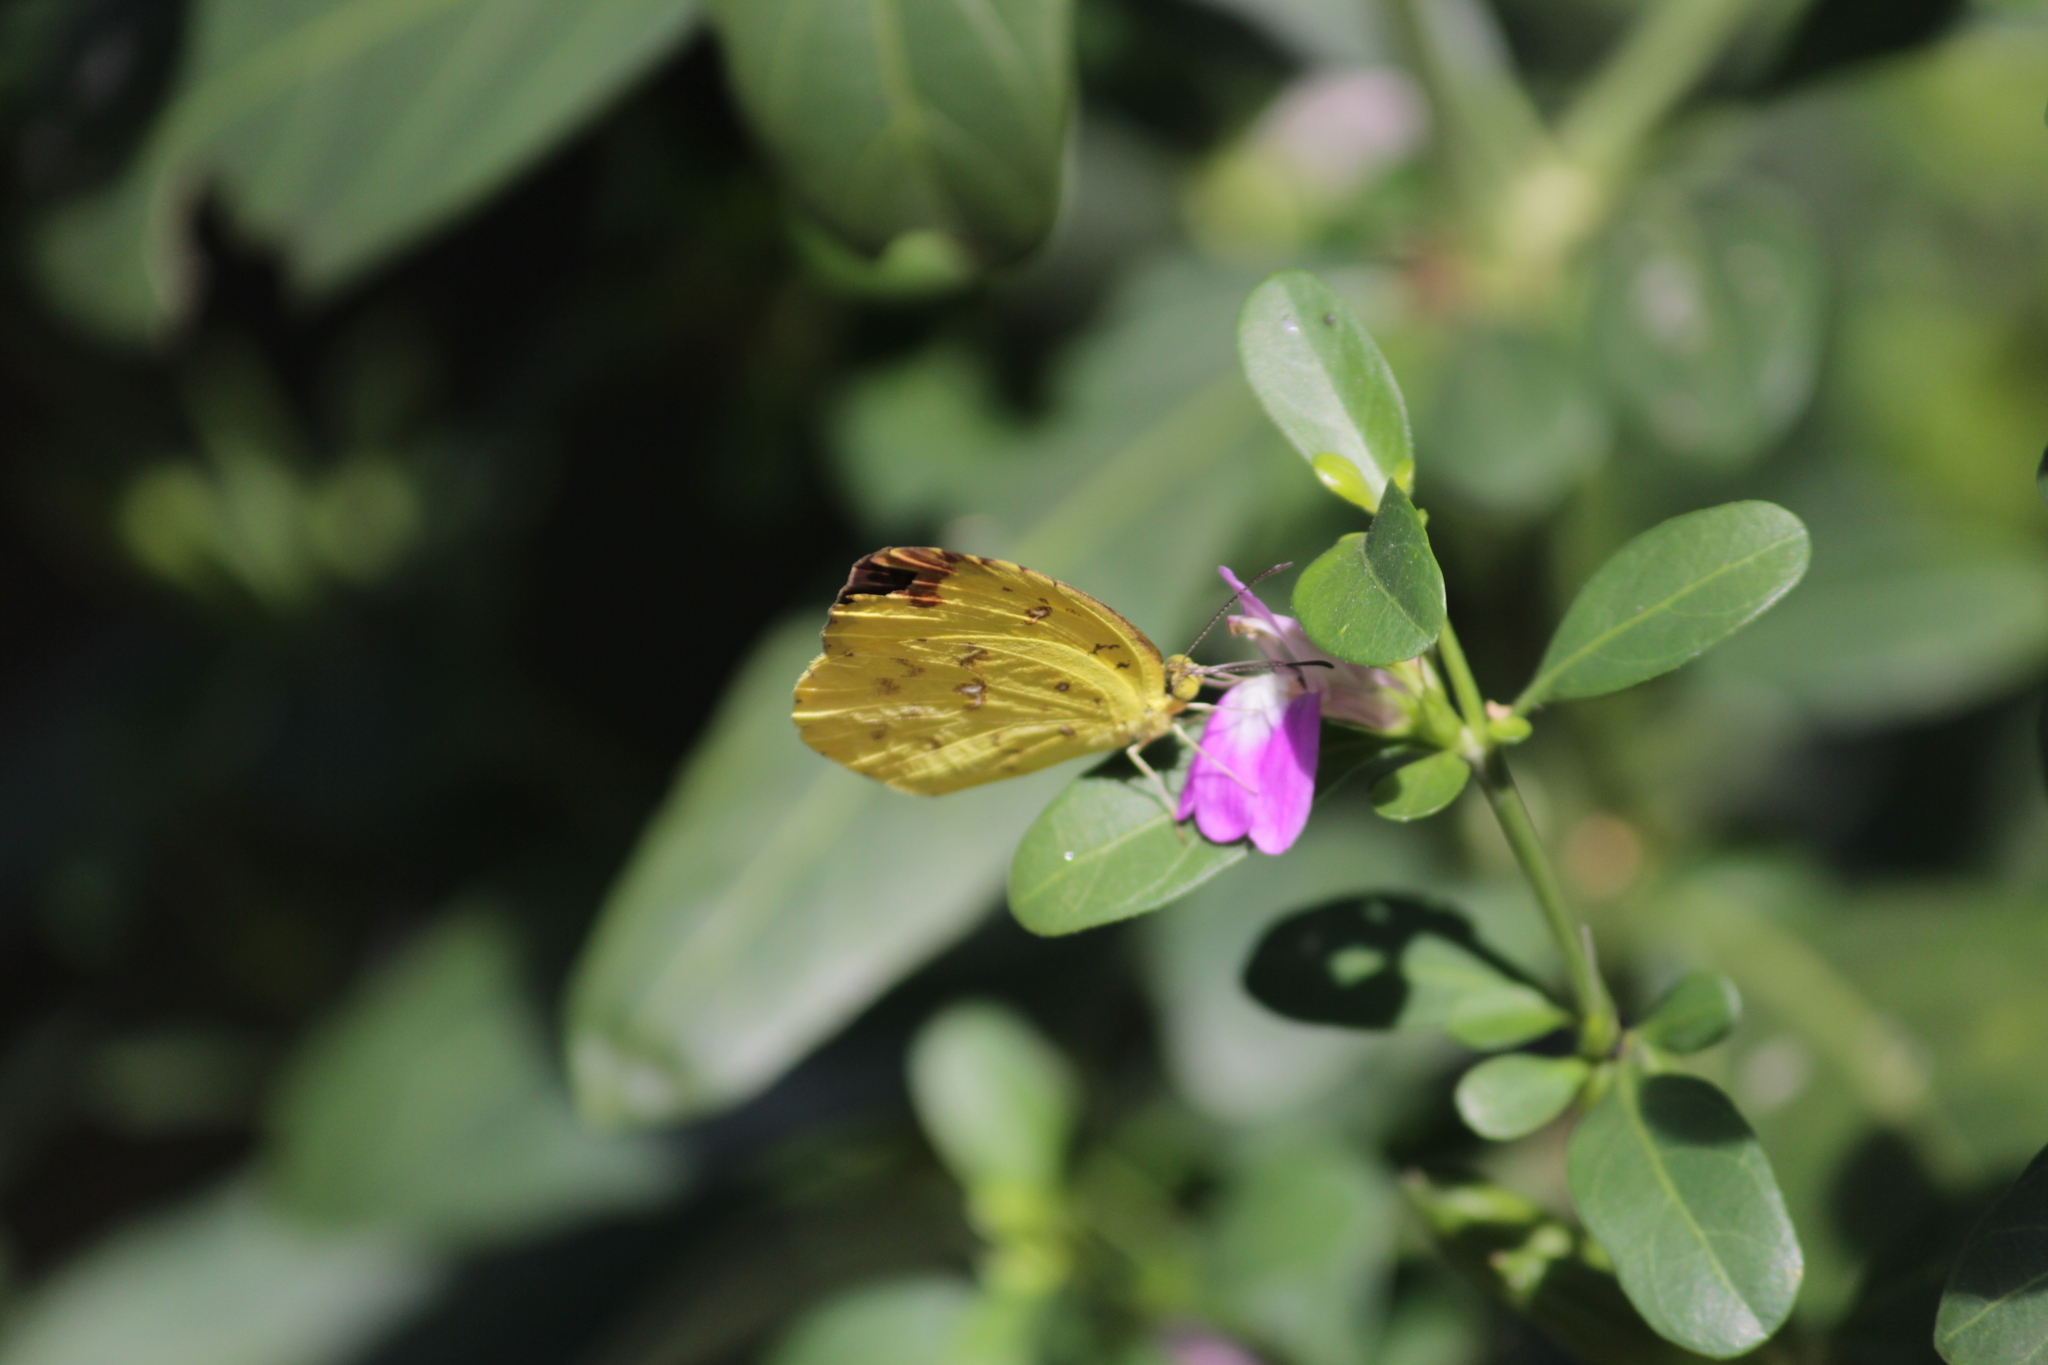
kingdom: Animalia
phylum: Arthropoda
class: Insecta
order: Lepidoptera
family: Pieridae
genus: Eurema
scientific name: Eurema floricola
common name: Malagasy grass yellow
